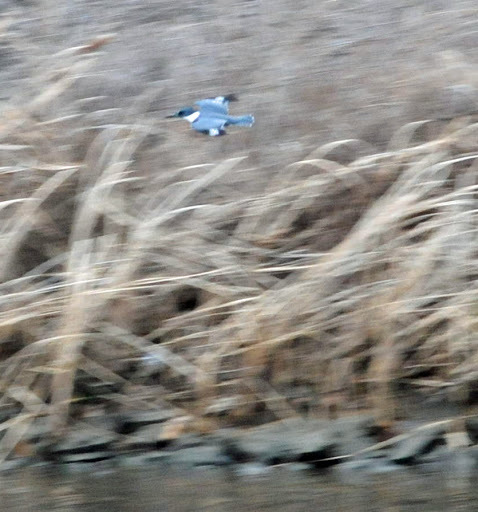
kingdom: Animalia
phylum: Chordata
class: Aves
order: Coraciiformes
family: Alcedinidae
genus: Megaceryle
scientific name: Megaceryle alcyon
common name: Belted kingfisher
